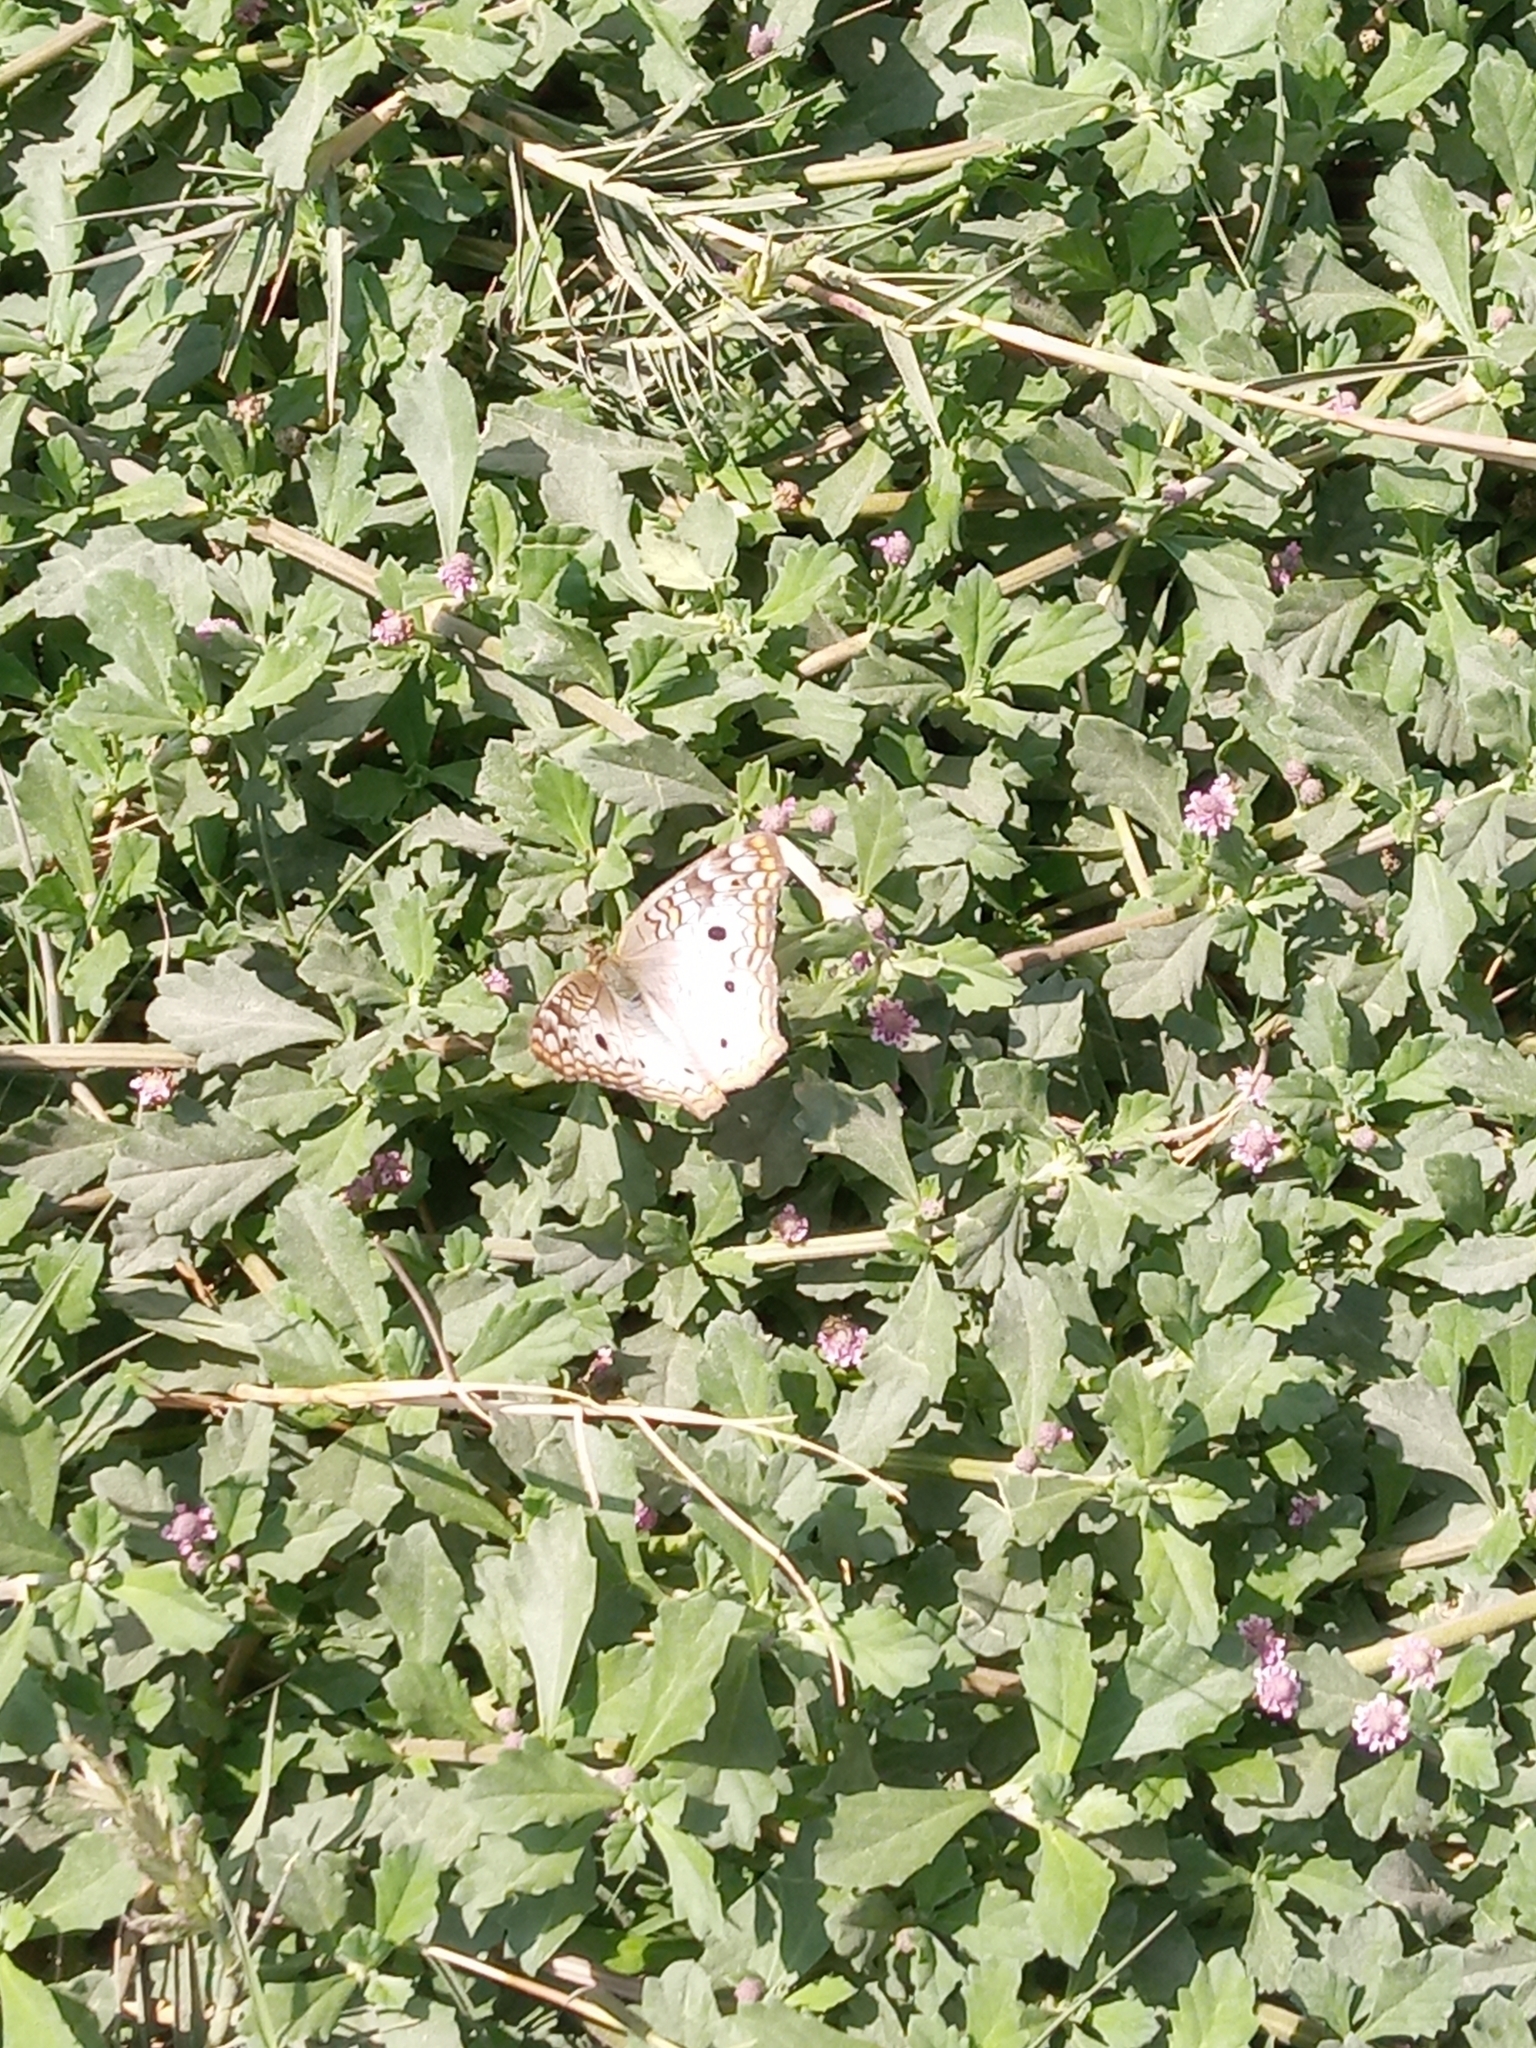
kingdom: Animalia
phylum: Arthropoda
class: Insecta
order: Lepidoptera
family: Nymphalidae
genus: Anartia
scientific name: Anartia jatrophae
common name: White peacock
